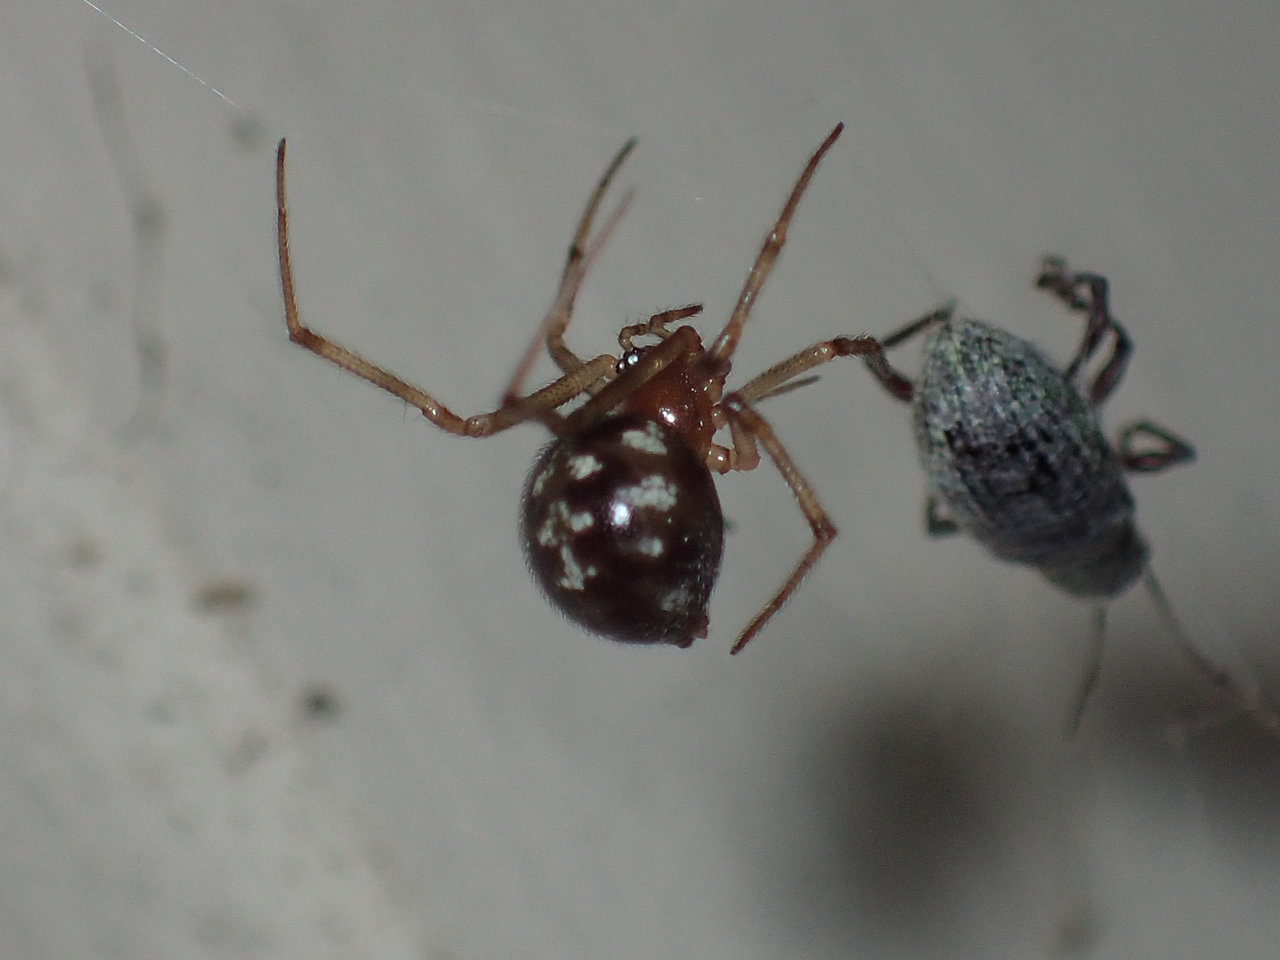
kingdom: Animalia
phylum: Arthropoda
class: Arachnida
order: Araneae
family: Theridiidae
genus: Steatoda
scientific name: Steatoda triangulosa
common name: Triangulate bud spider
